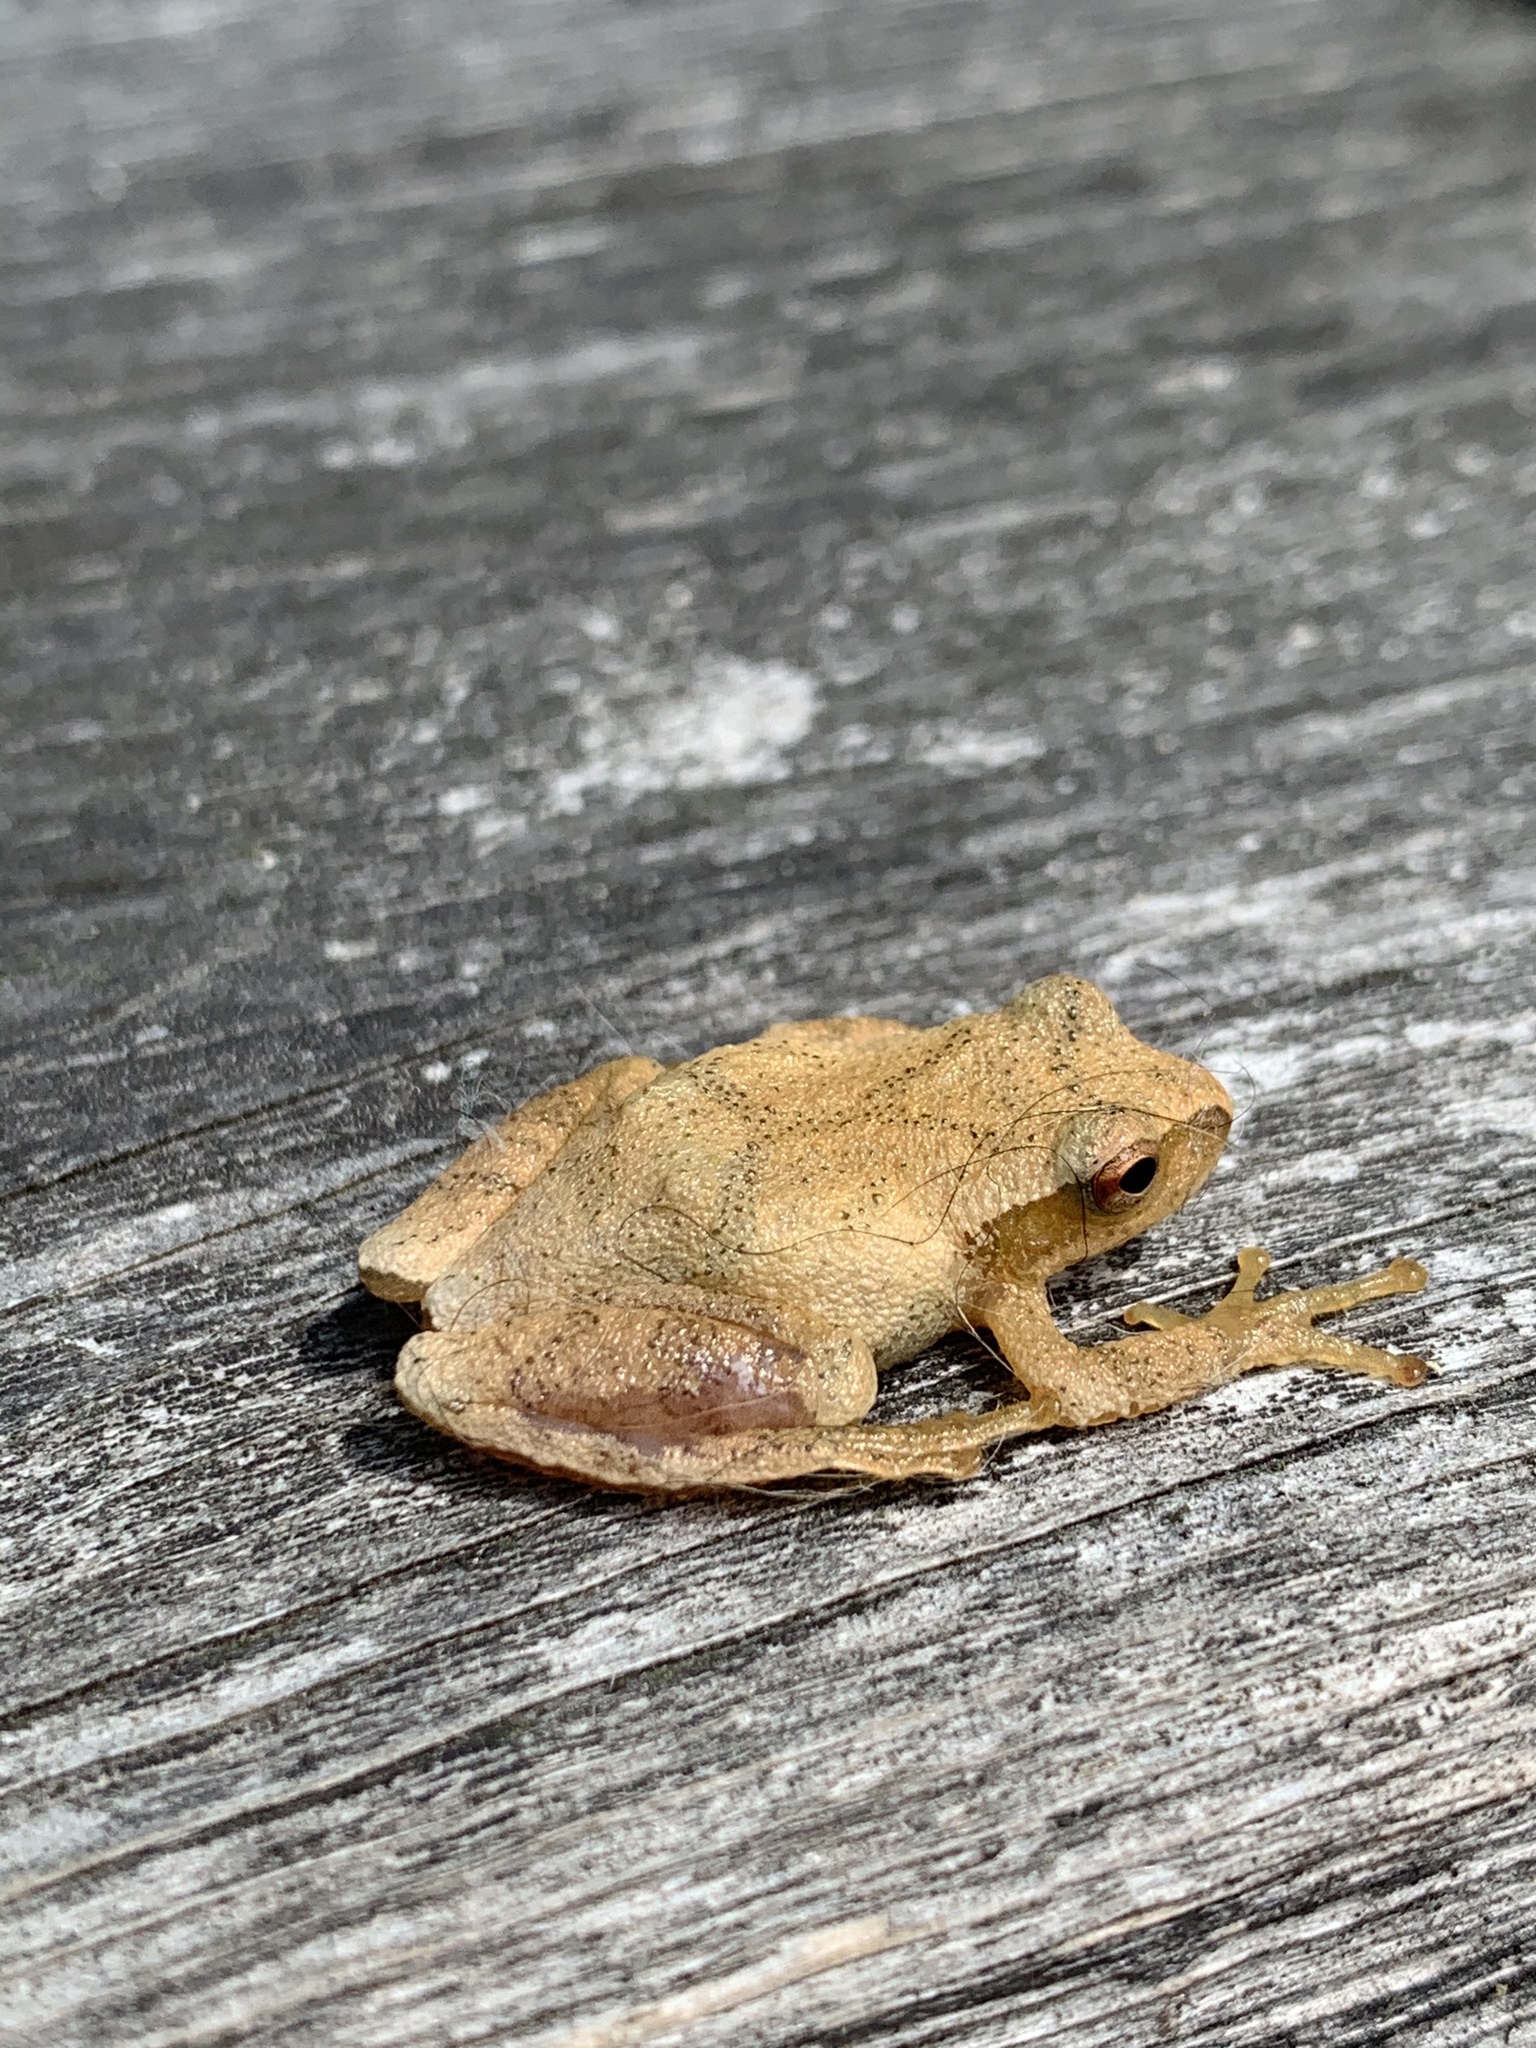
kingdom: Animalia
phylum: Chordata
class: Amphibia
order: Anura
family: Hylidae
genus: Pseudacris
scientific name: Pseudacris crucifer
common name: Spring peeper
